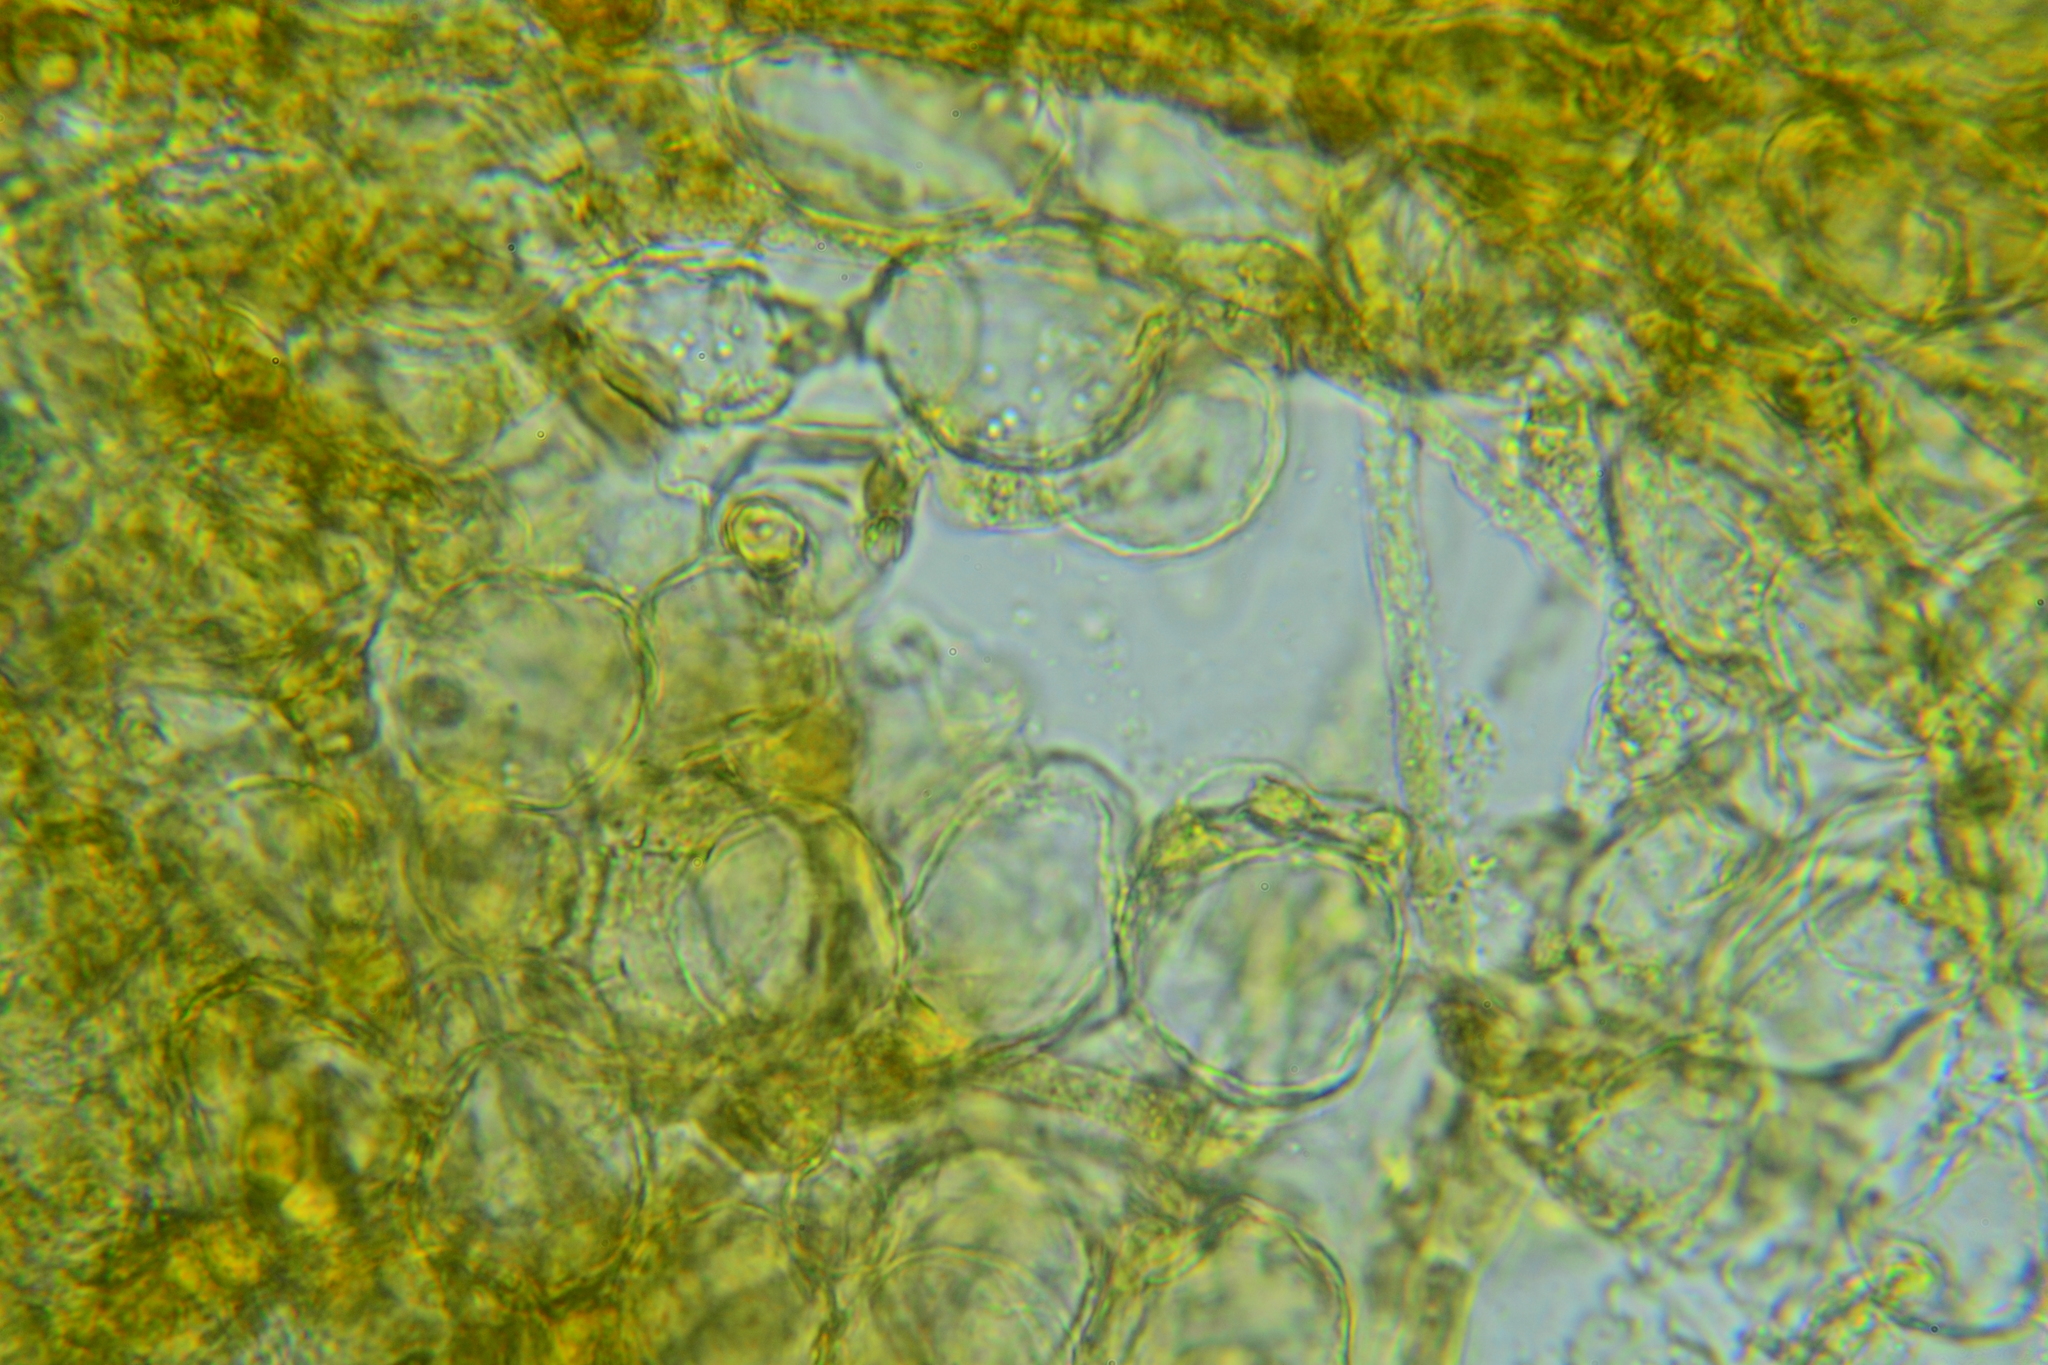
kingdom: Fungi
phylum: Ascomycota
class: Pezizomycetes
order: Pezizales
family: Pezizaceae
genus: Elaiopezia
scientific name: Elaiopezia waltersii
